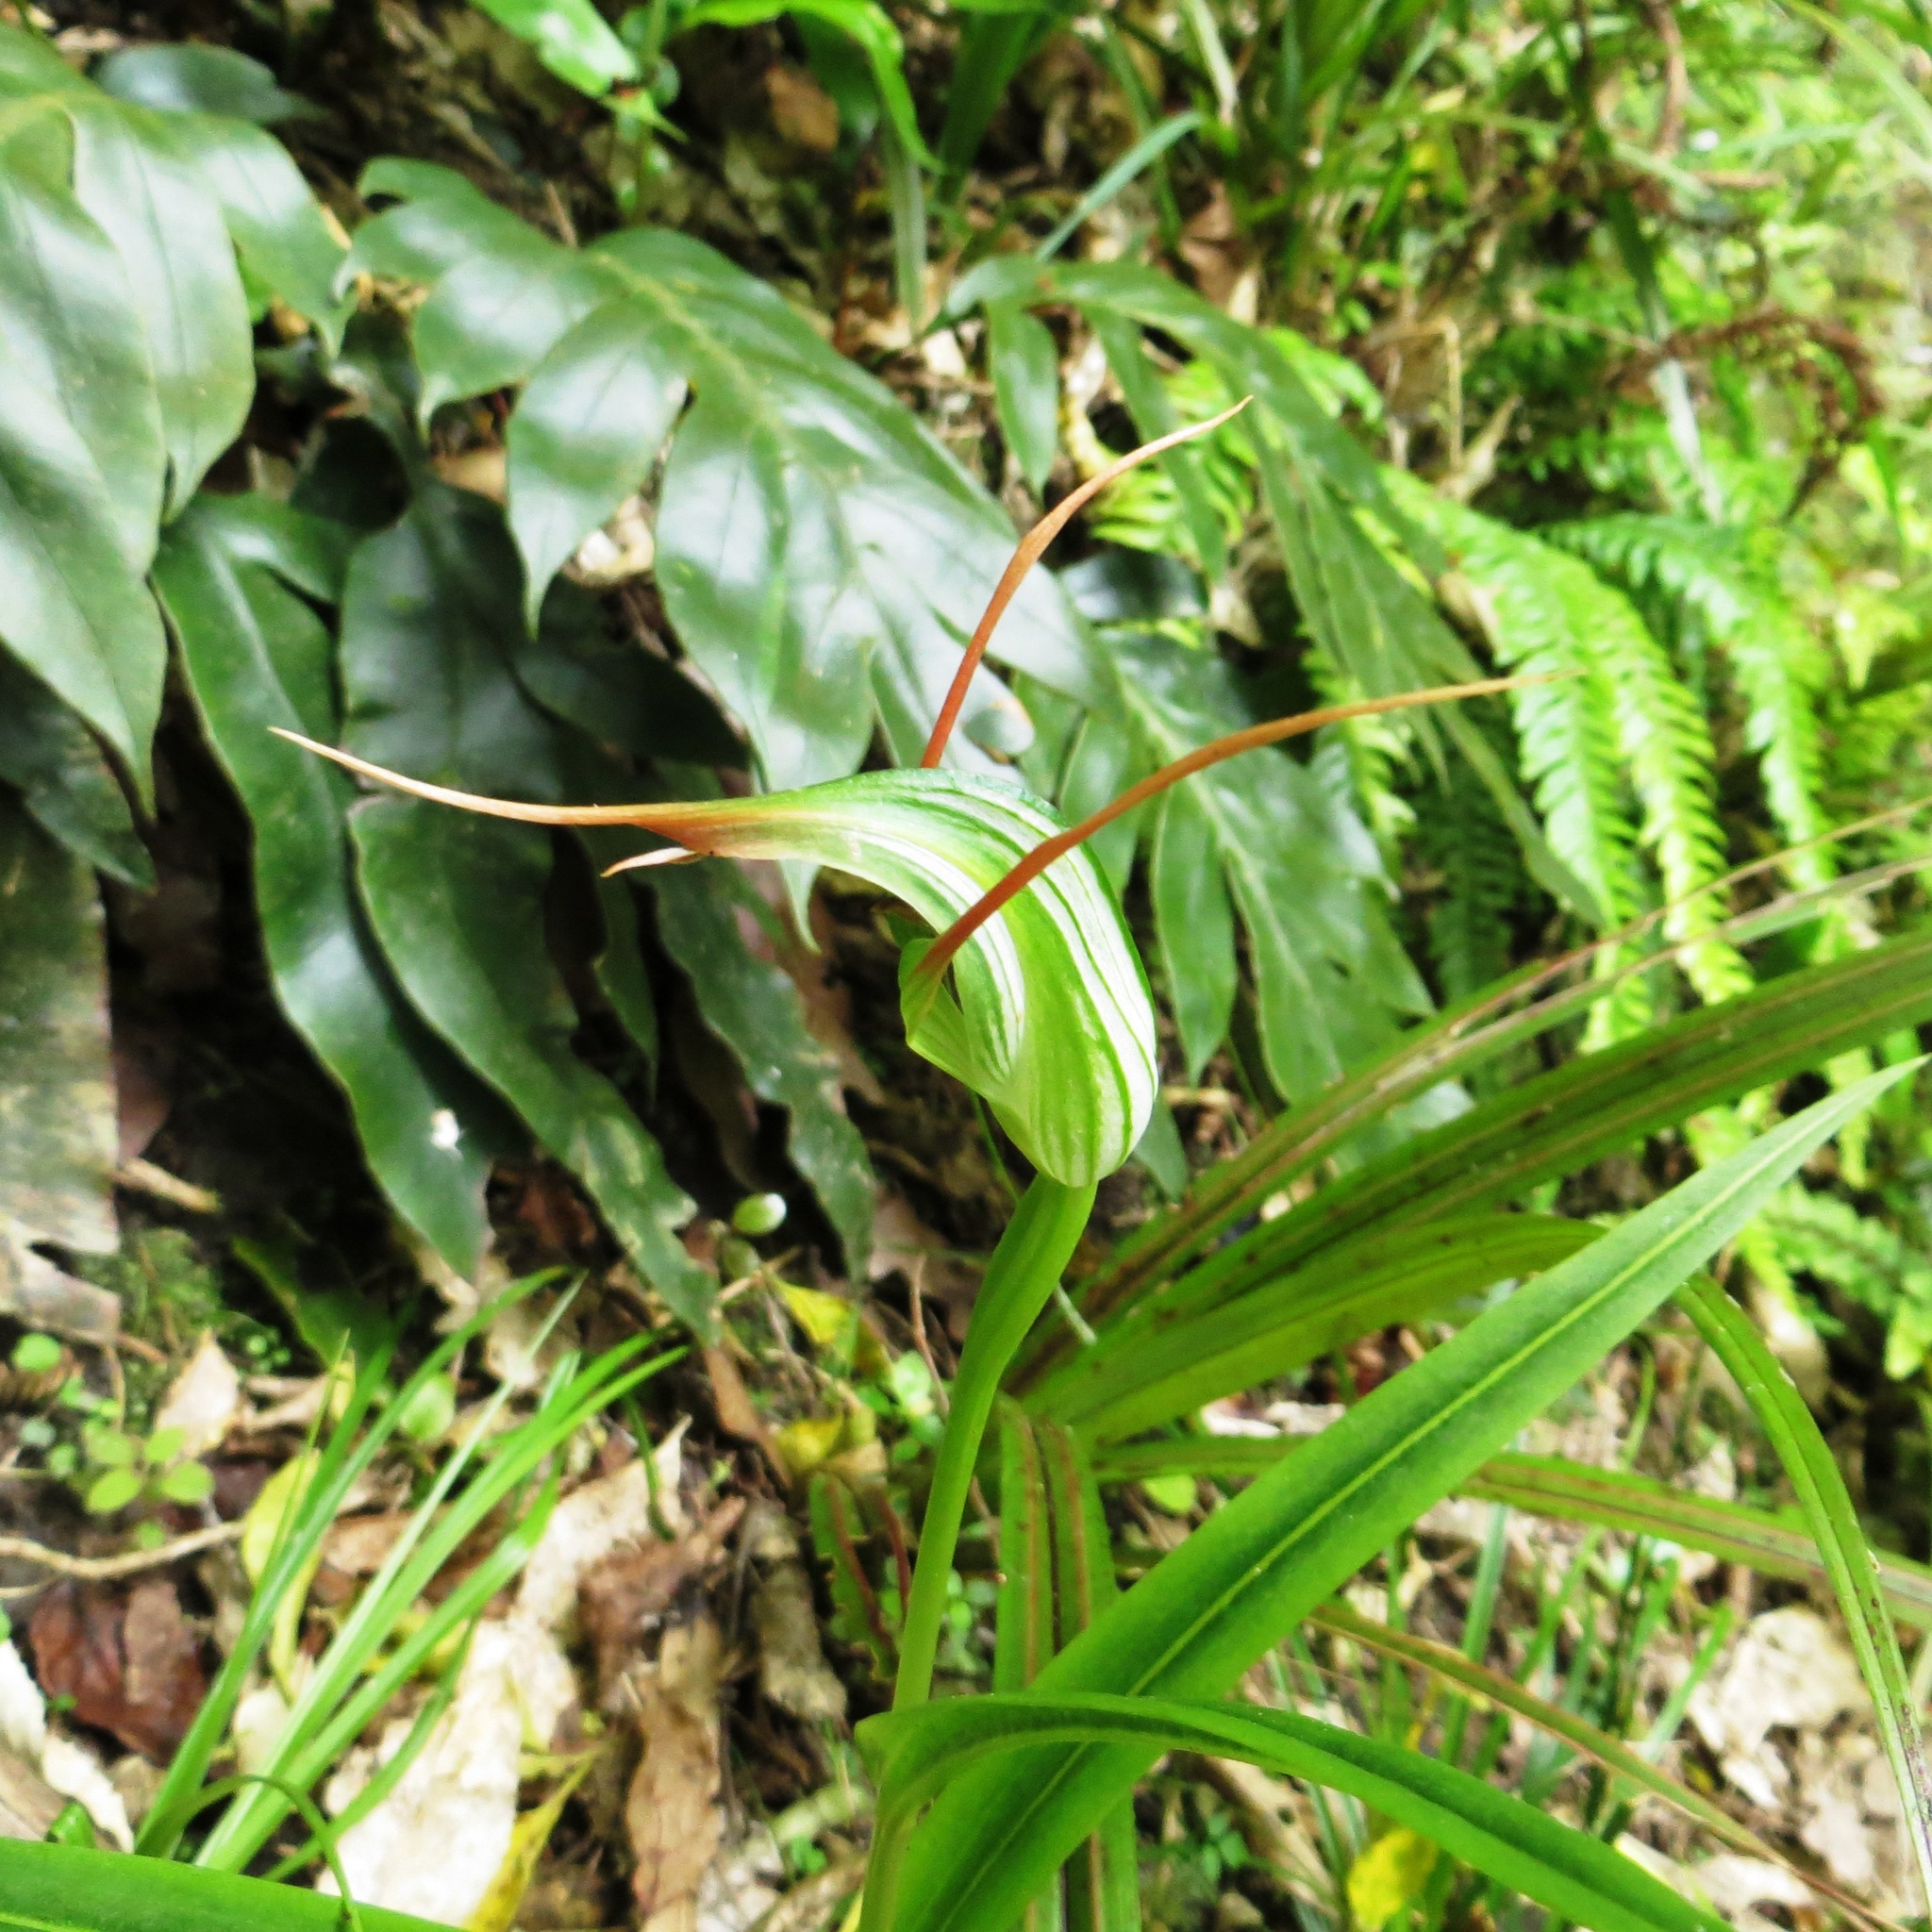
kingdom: Plantae
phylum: Tracheophyta
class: Liliopsida
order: Asparagales
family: Orchidaceae
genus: Pterostylis
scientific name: Pterostylis banksii
